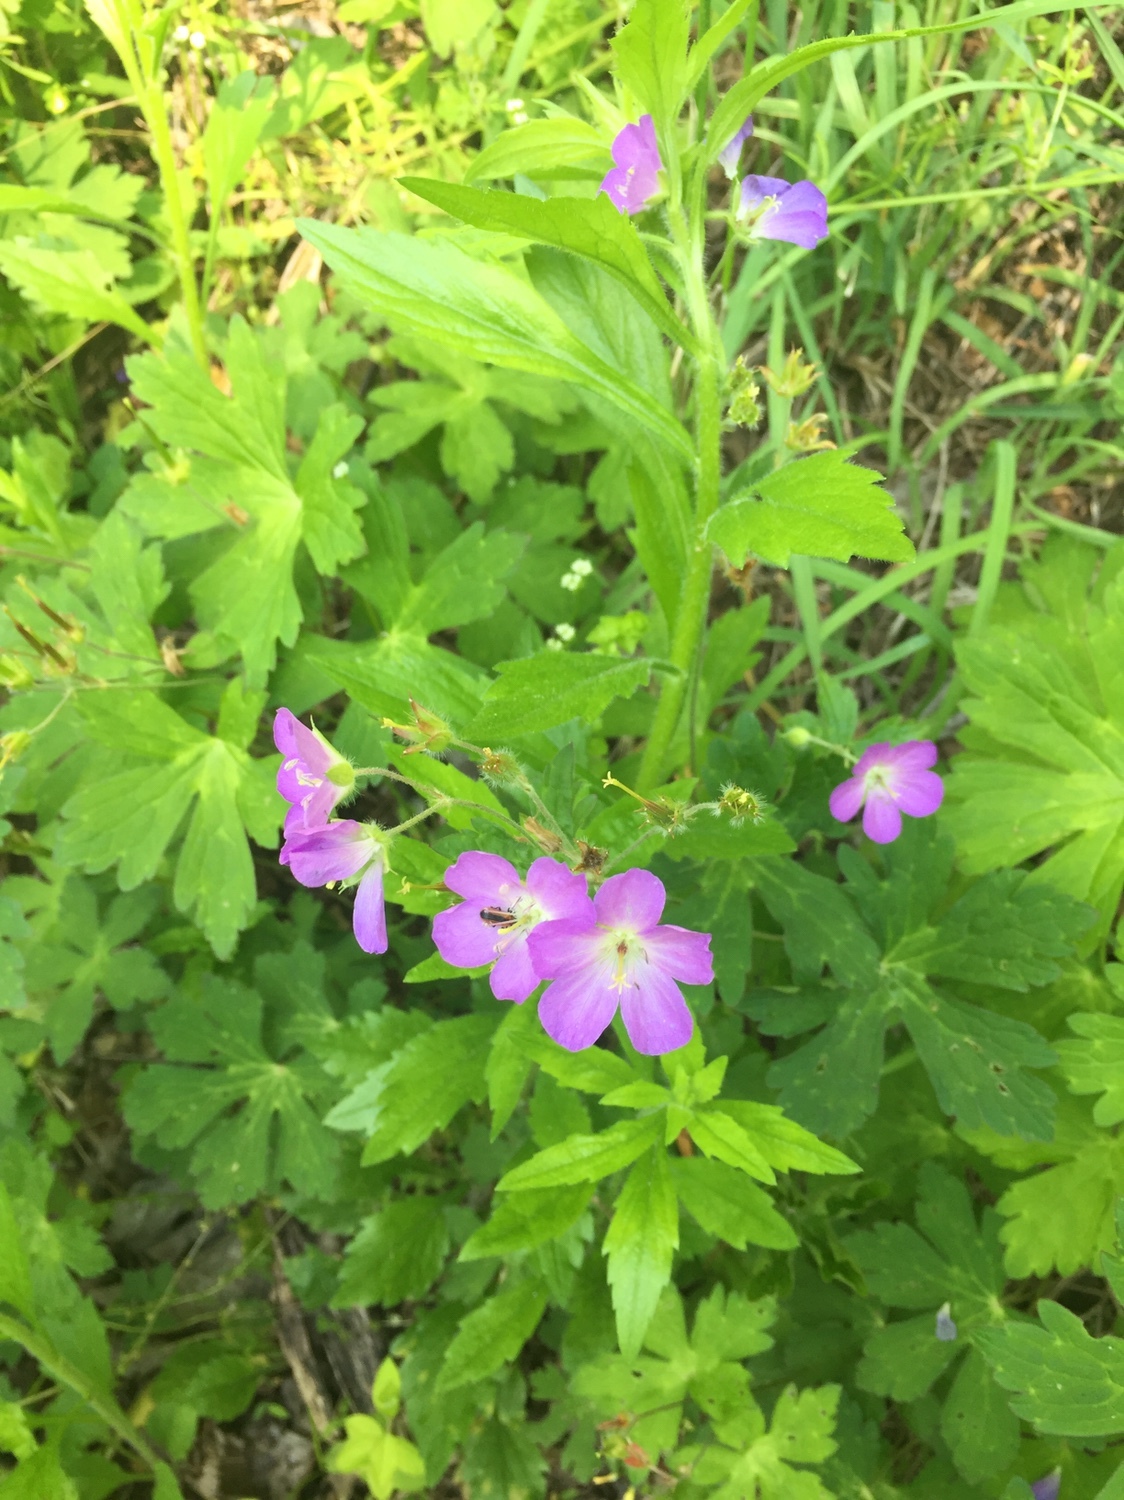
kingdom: Plantae
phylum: Tracheophyta
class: Magnoliopsida
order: Geraniales
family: Geraniaceae
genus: Geranium
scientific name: Geranium maculatum
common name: Spotted geranium
